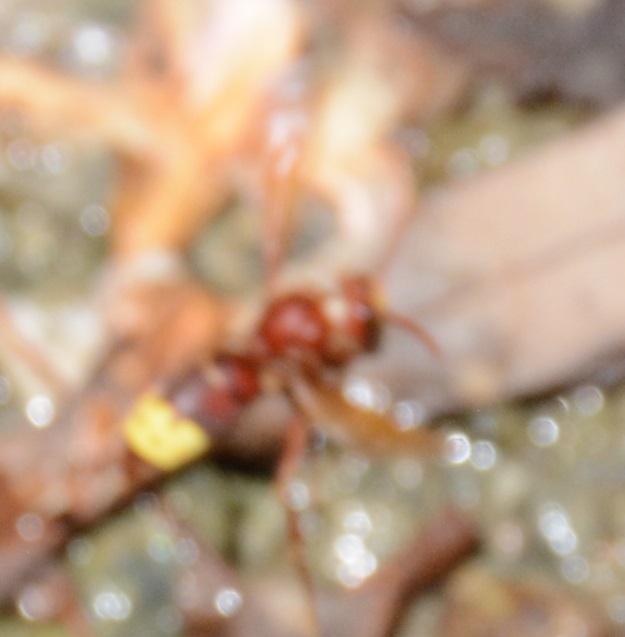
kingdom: Animalia
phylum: Arthropoda
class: Insecta
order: Hymenoptera
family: Vespidae
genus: Vespa
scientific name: Vespa orientalis
